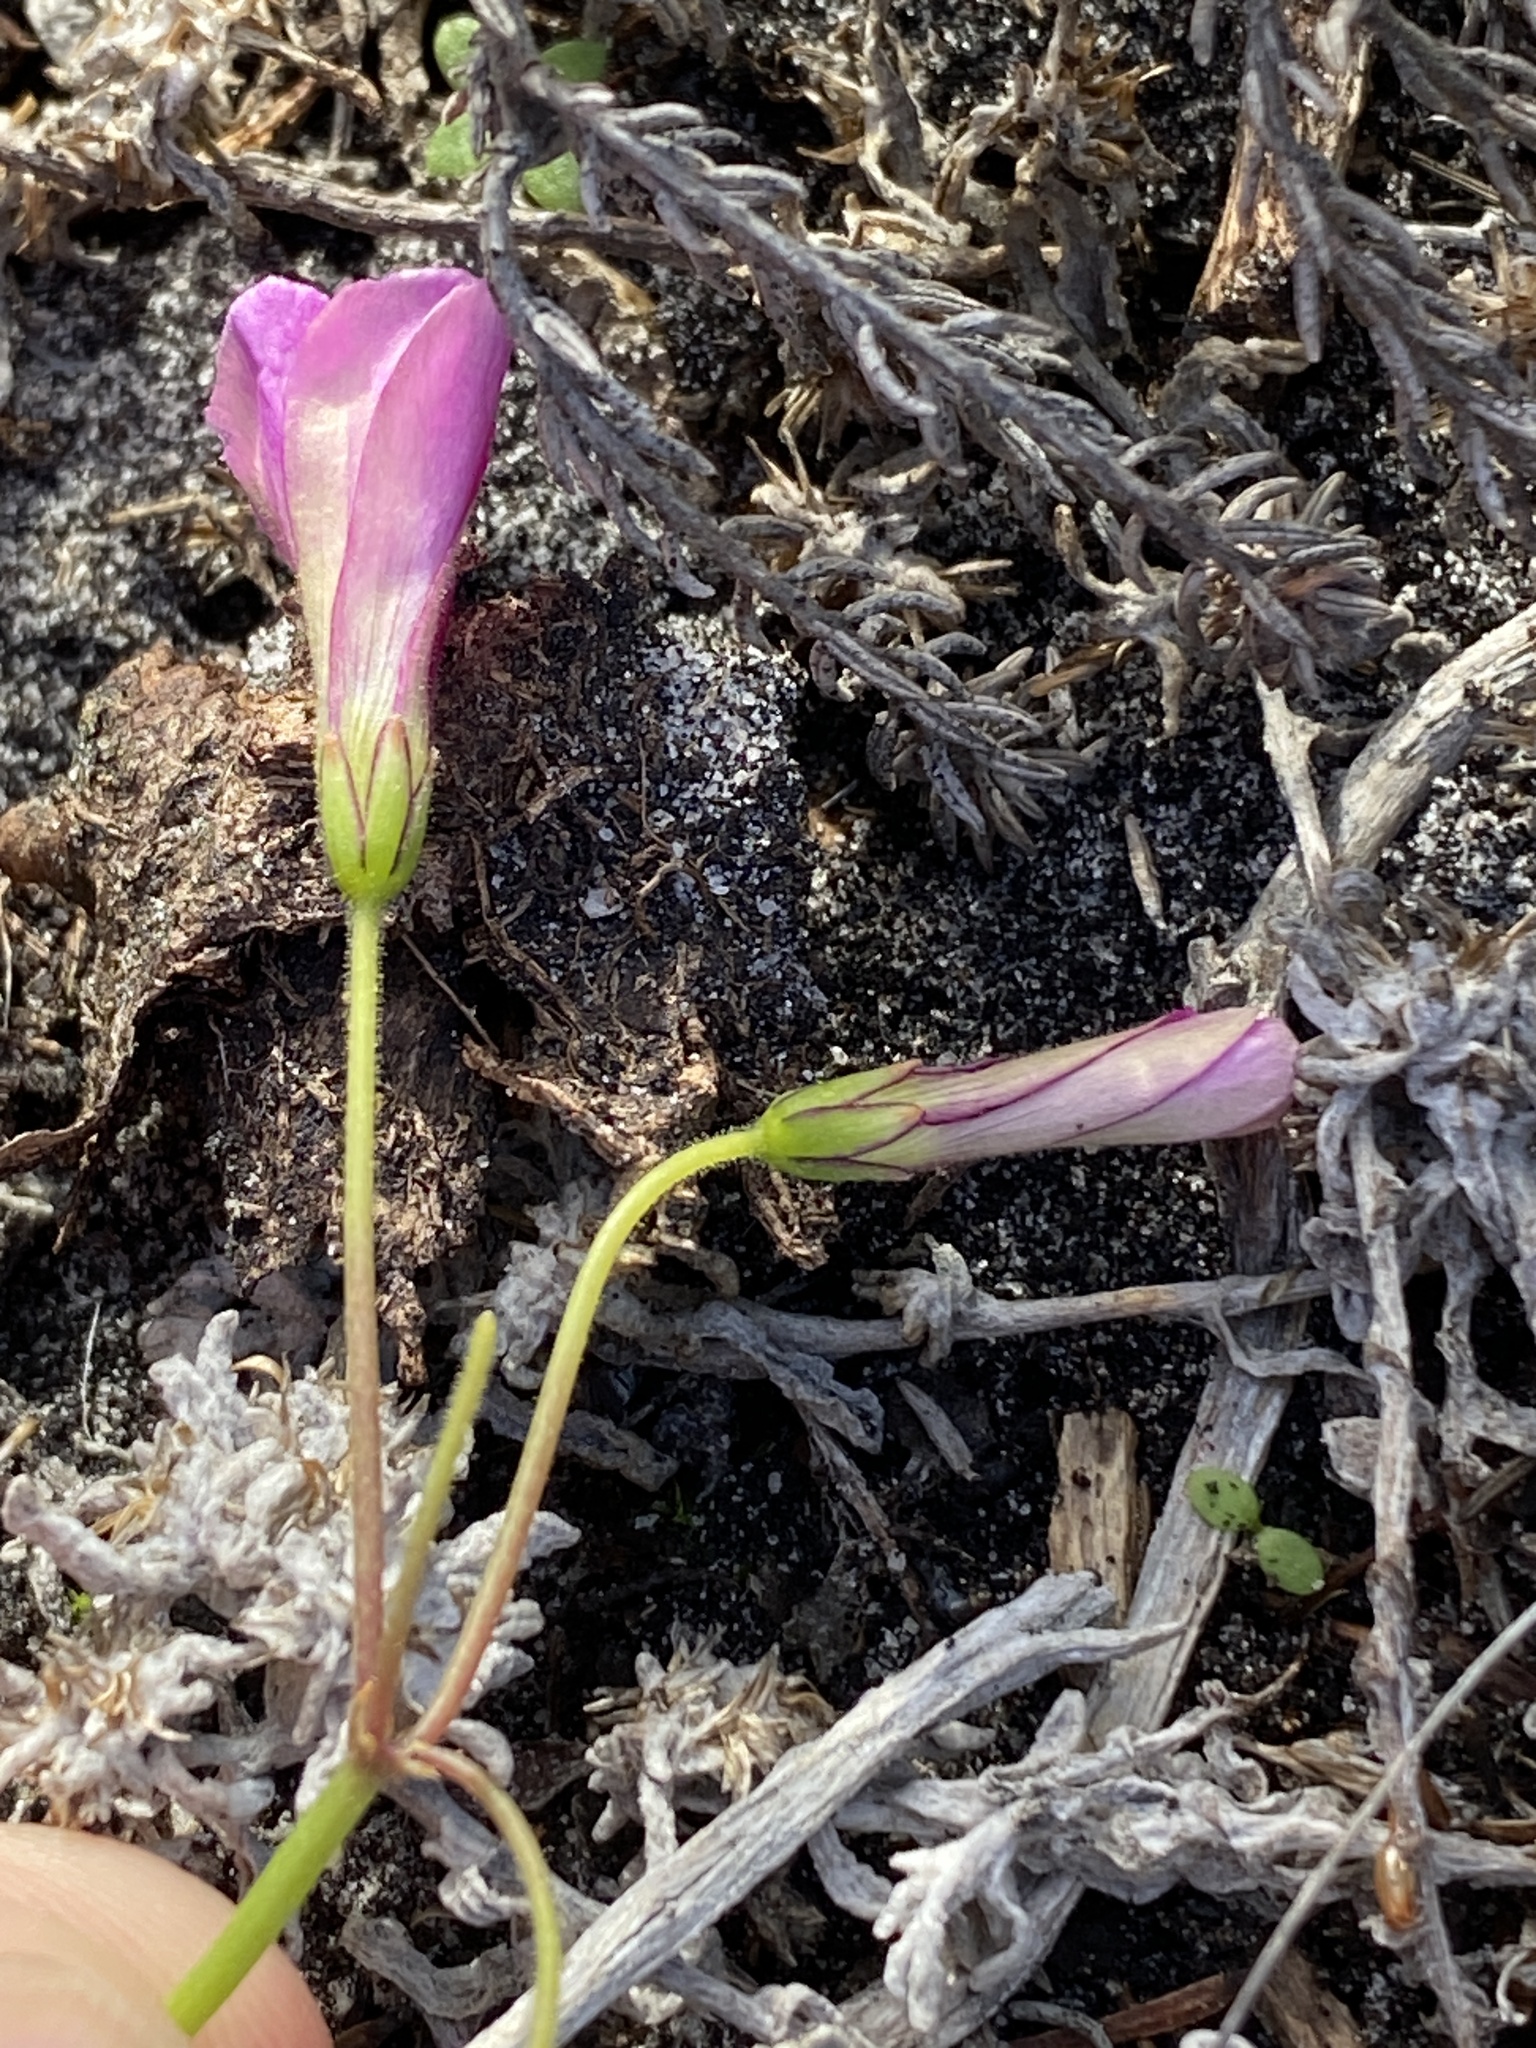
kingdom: Plantae
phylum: Tracheophyta
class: Magnoliopsida
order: Oxalidales
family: Oxalidaceae
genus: Oxalis
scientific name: Oxalis livida
